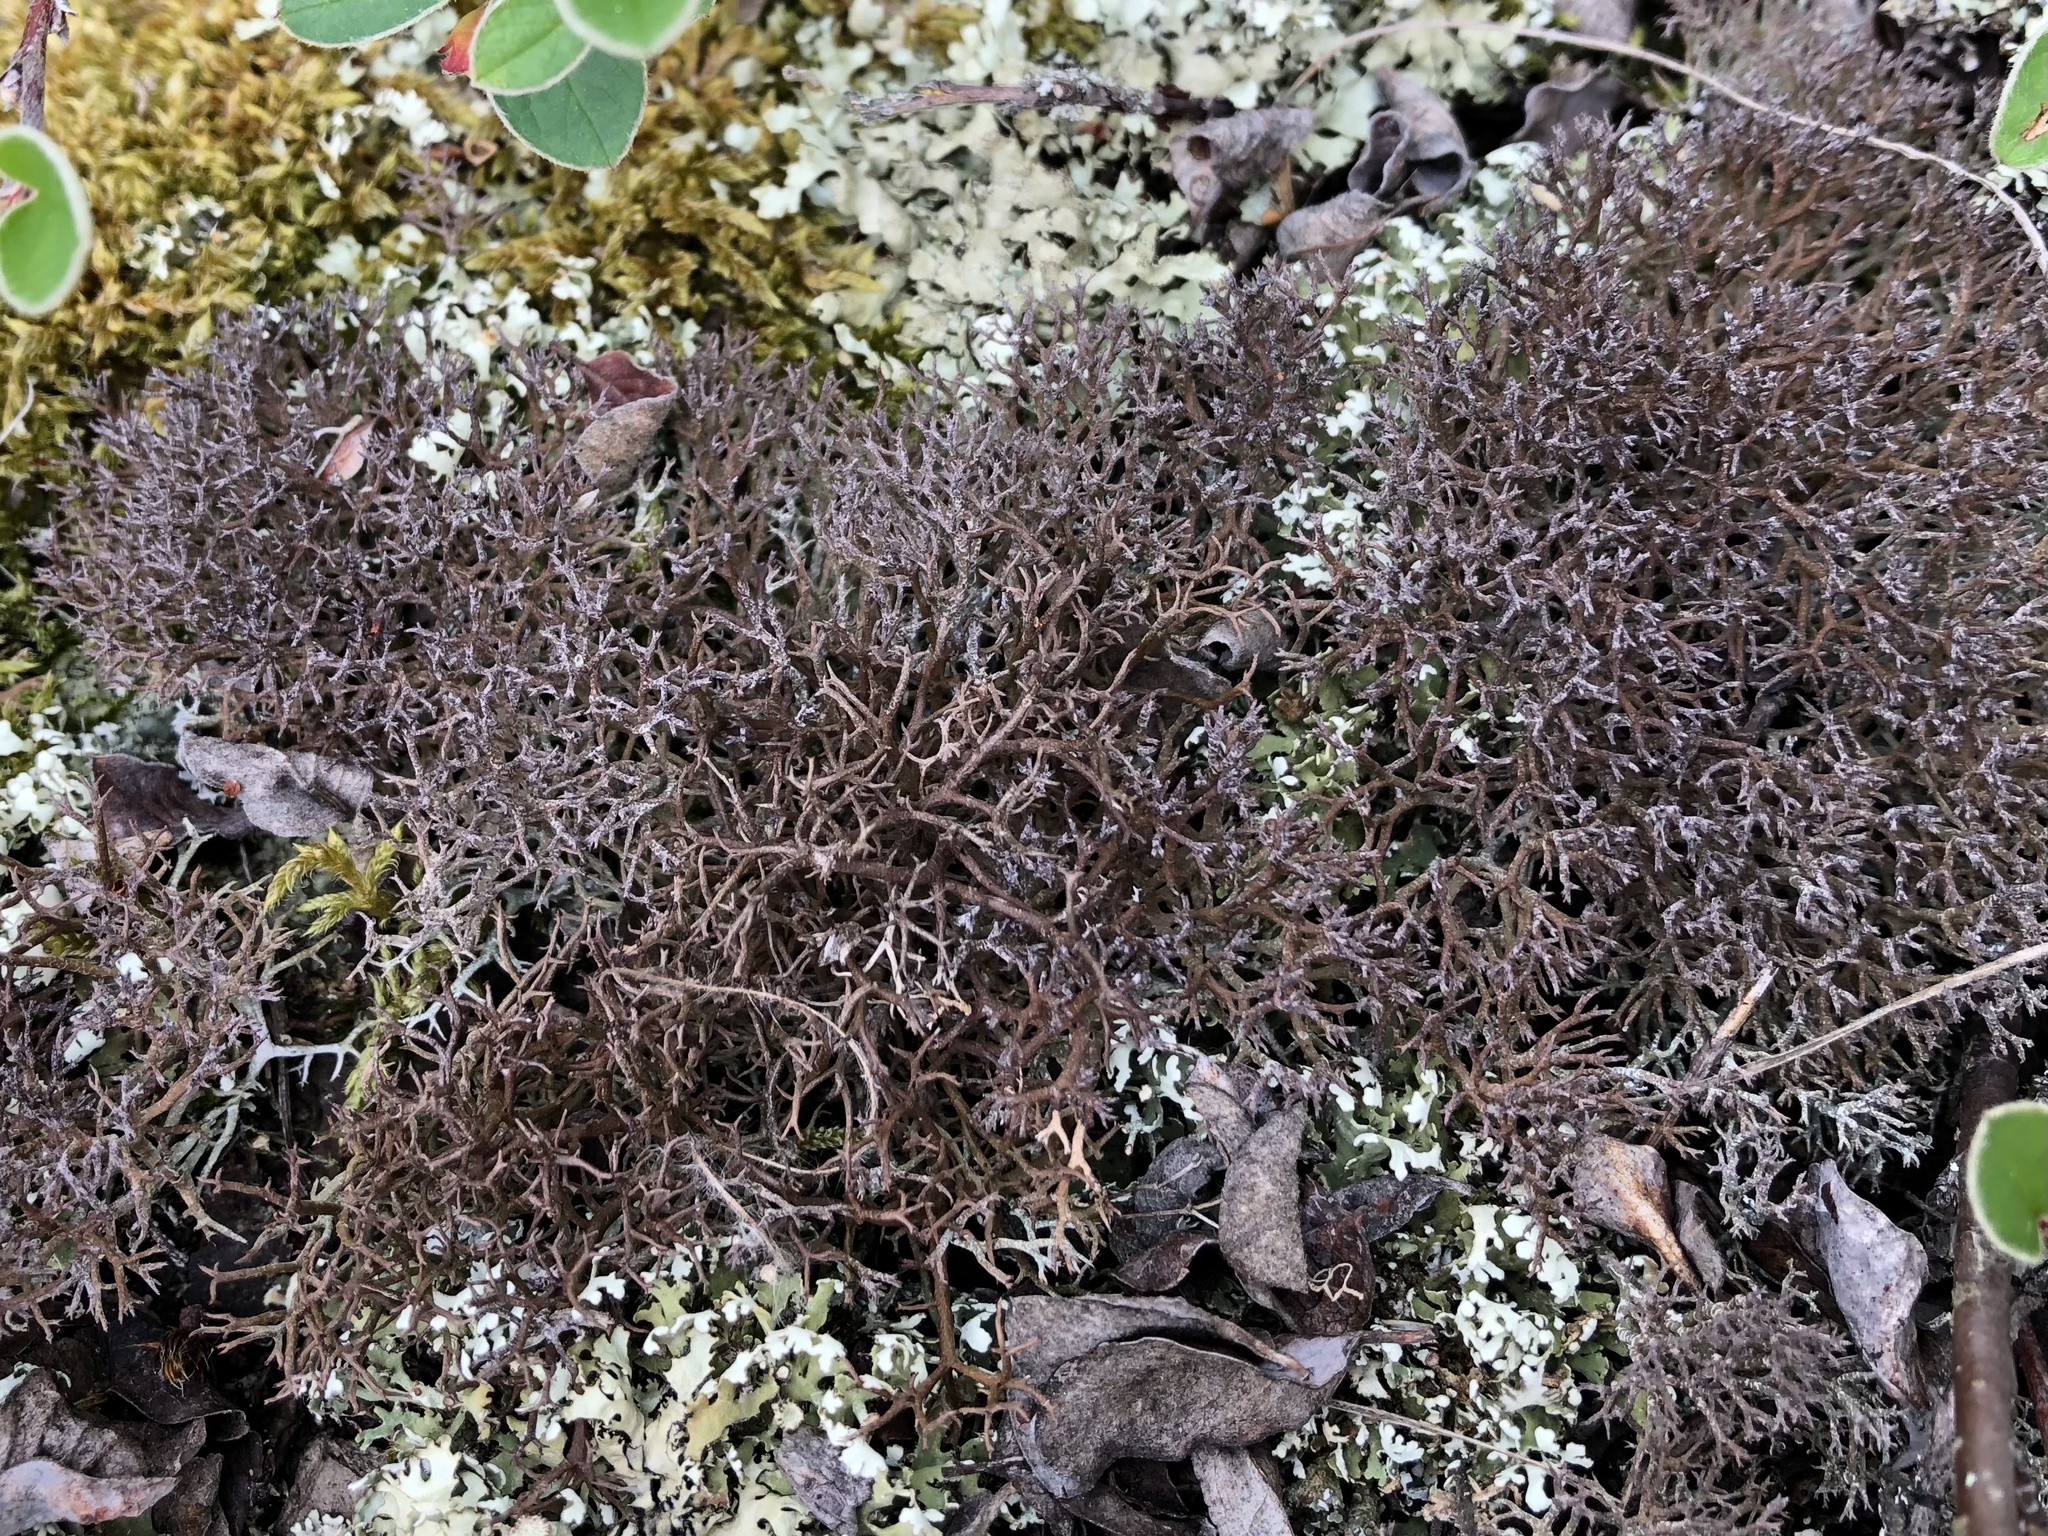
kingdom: Fungi
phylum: Ascomycota
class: Lecanoromycetes
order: Lecanorales
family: Cladoniaceae
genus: Cladonia
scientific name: Cladonia furcata
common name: Many-forked cladonia
